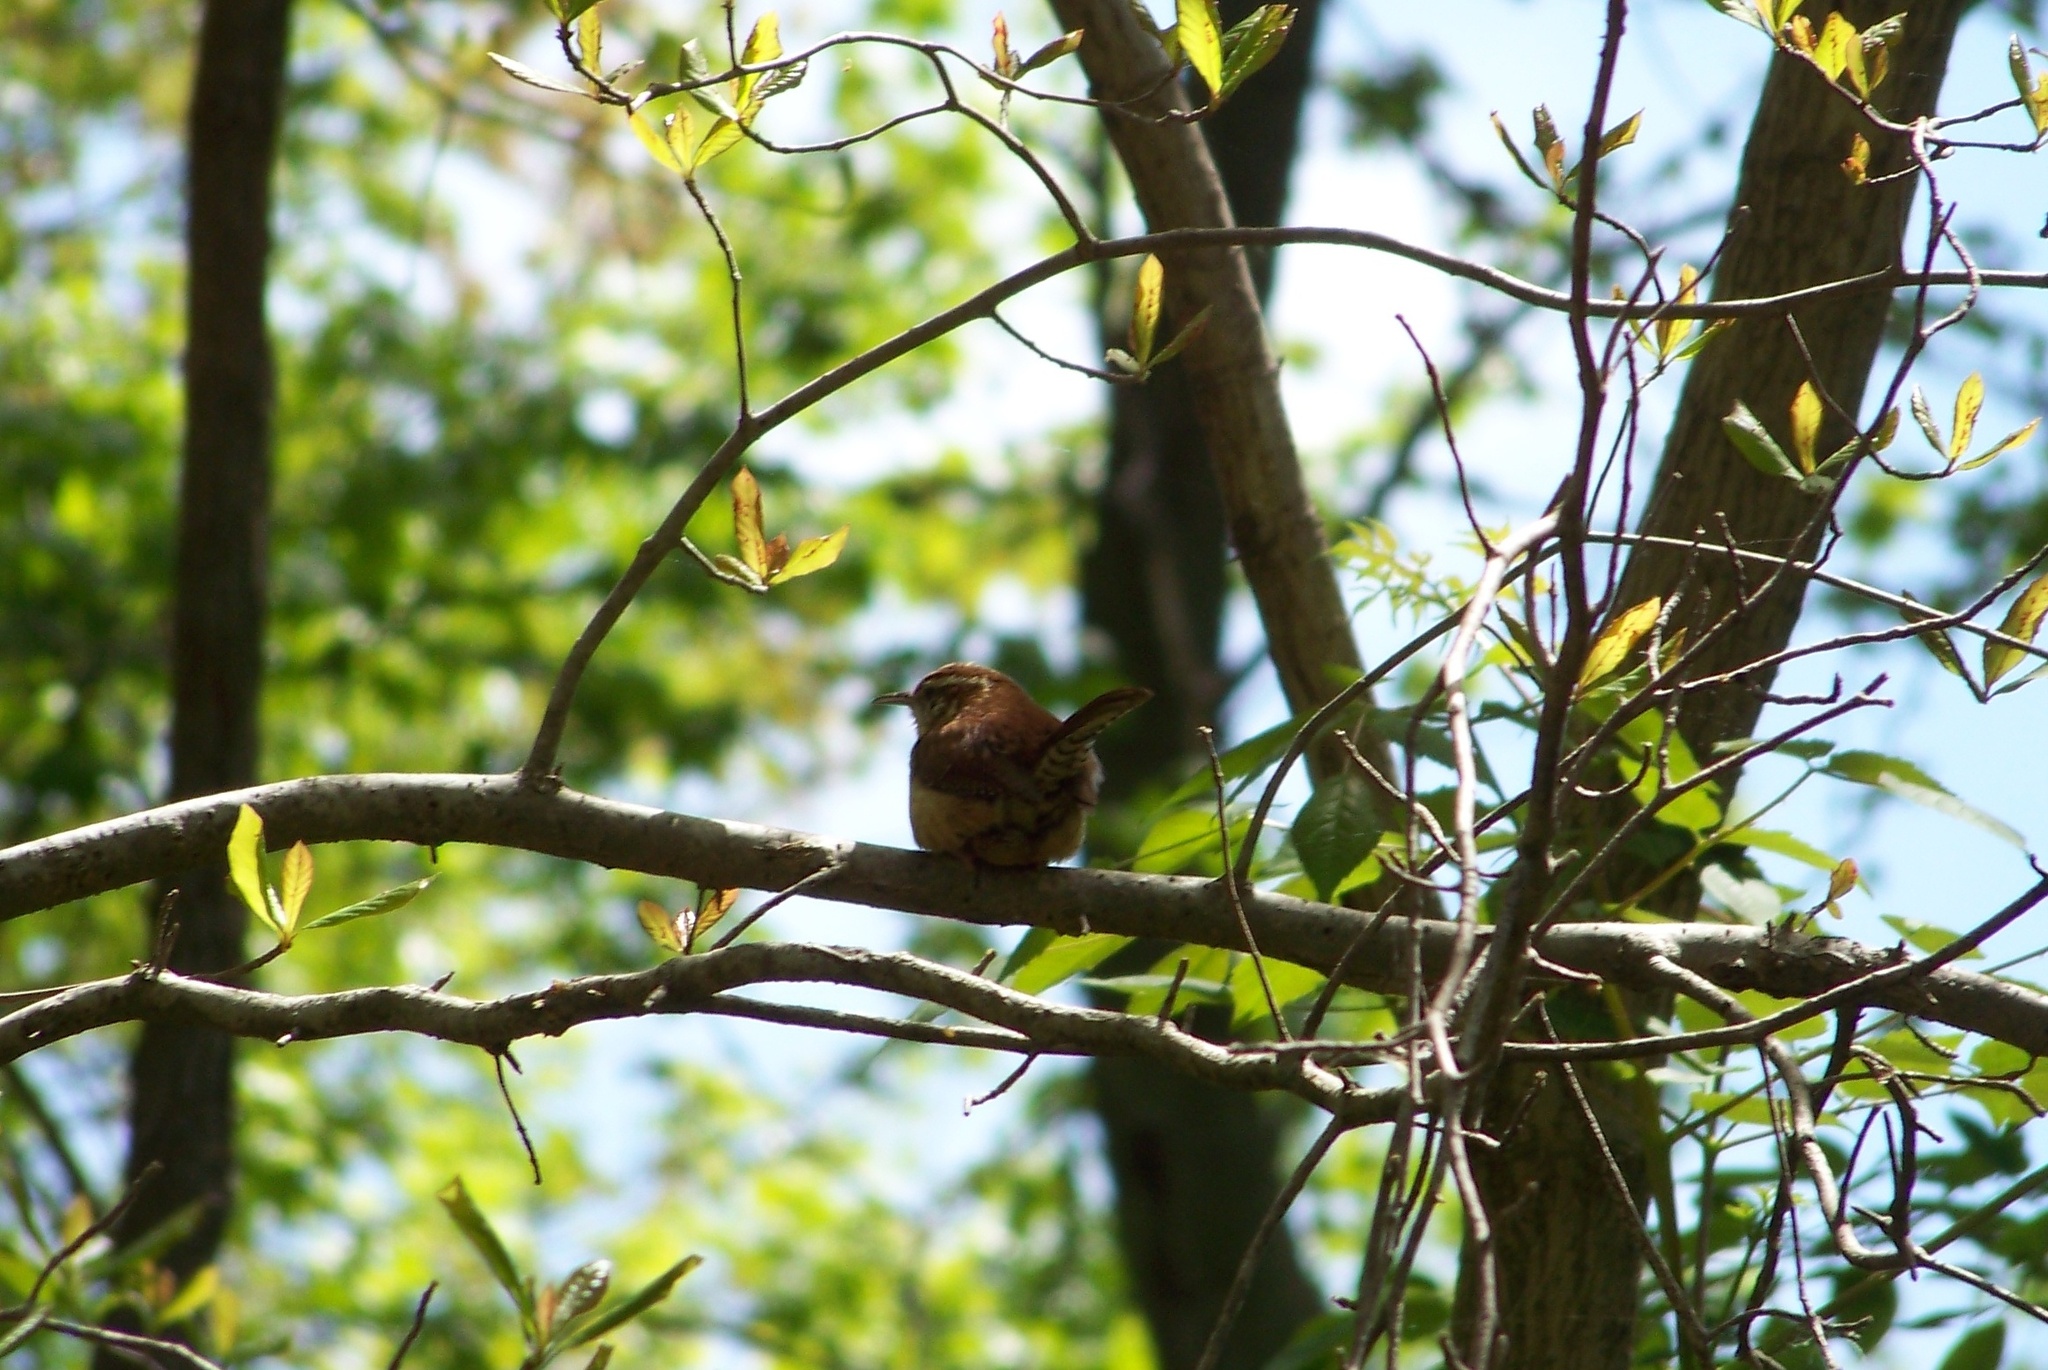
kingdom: Animalia
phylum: Chordata
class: Aves
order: Passeriformes
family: Troglodytidae
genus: Thryothorus
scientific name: Thryothorus ludovicianus
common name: Carolina wren
